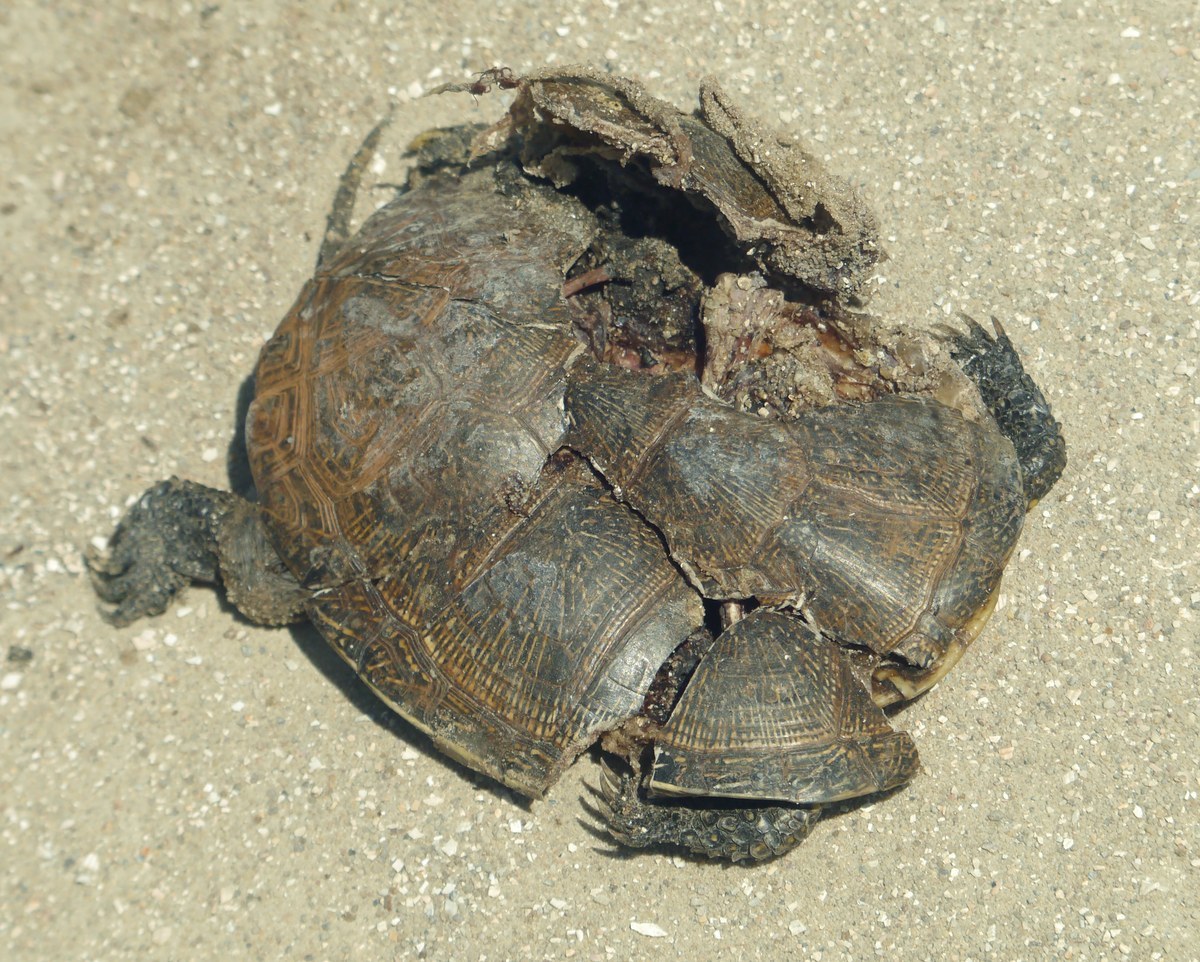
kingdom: Animalia
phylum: Chordata
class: Testudines
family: Emydidae
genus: Emys
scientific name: Emys orbicularis
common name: European pond turtle
